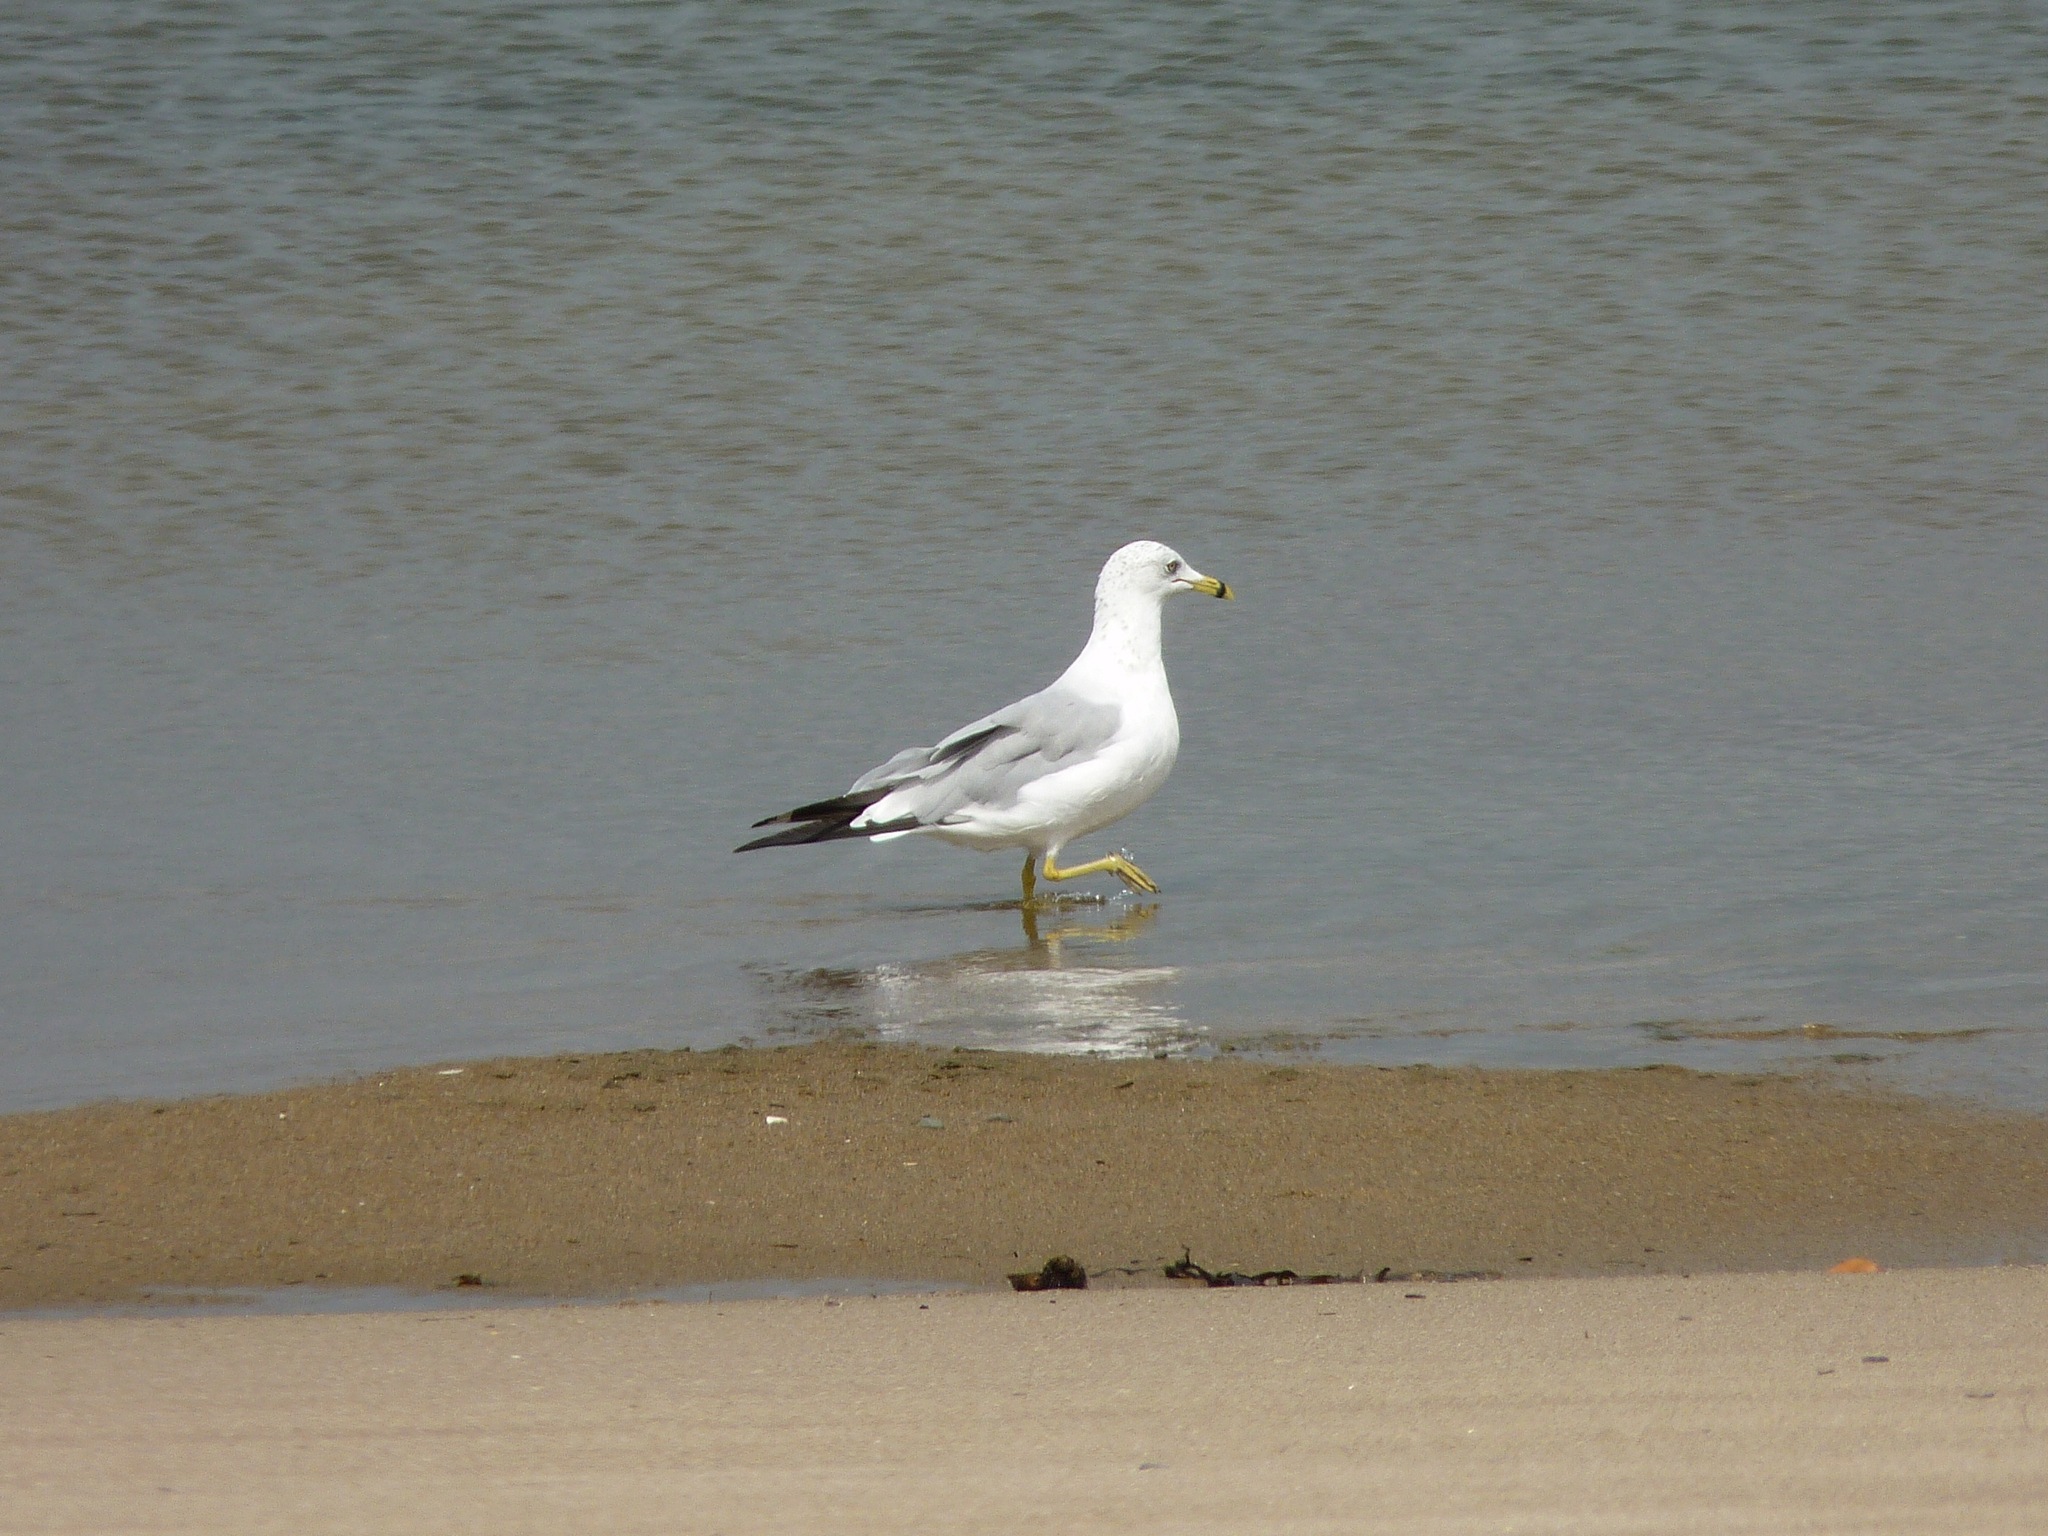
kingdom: Animalia
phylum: Chordata
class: Aves
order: Charadriiformes
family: Laridae
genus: Larus
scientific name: Larus delawarensis
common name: Ring-billed gull
